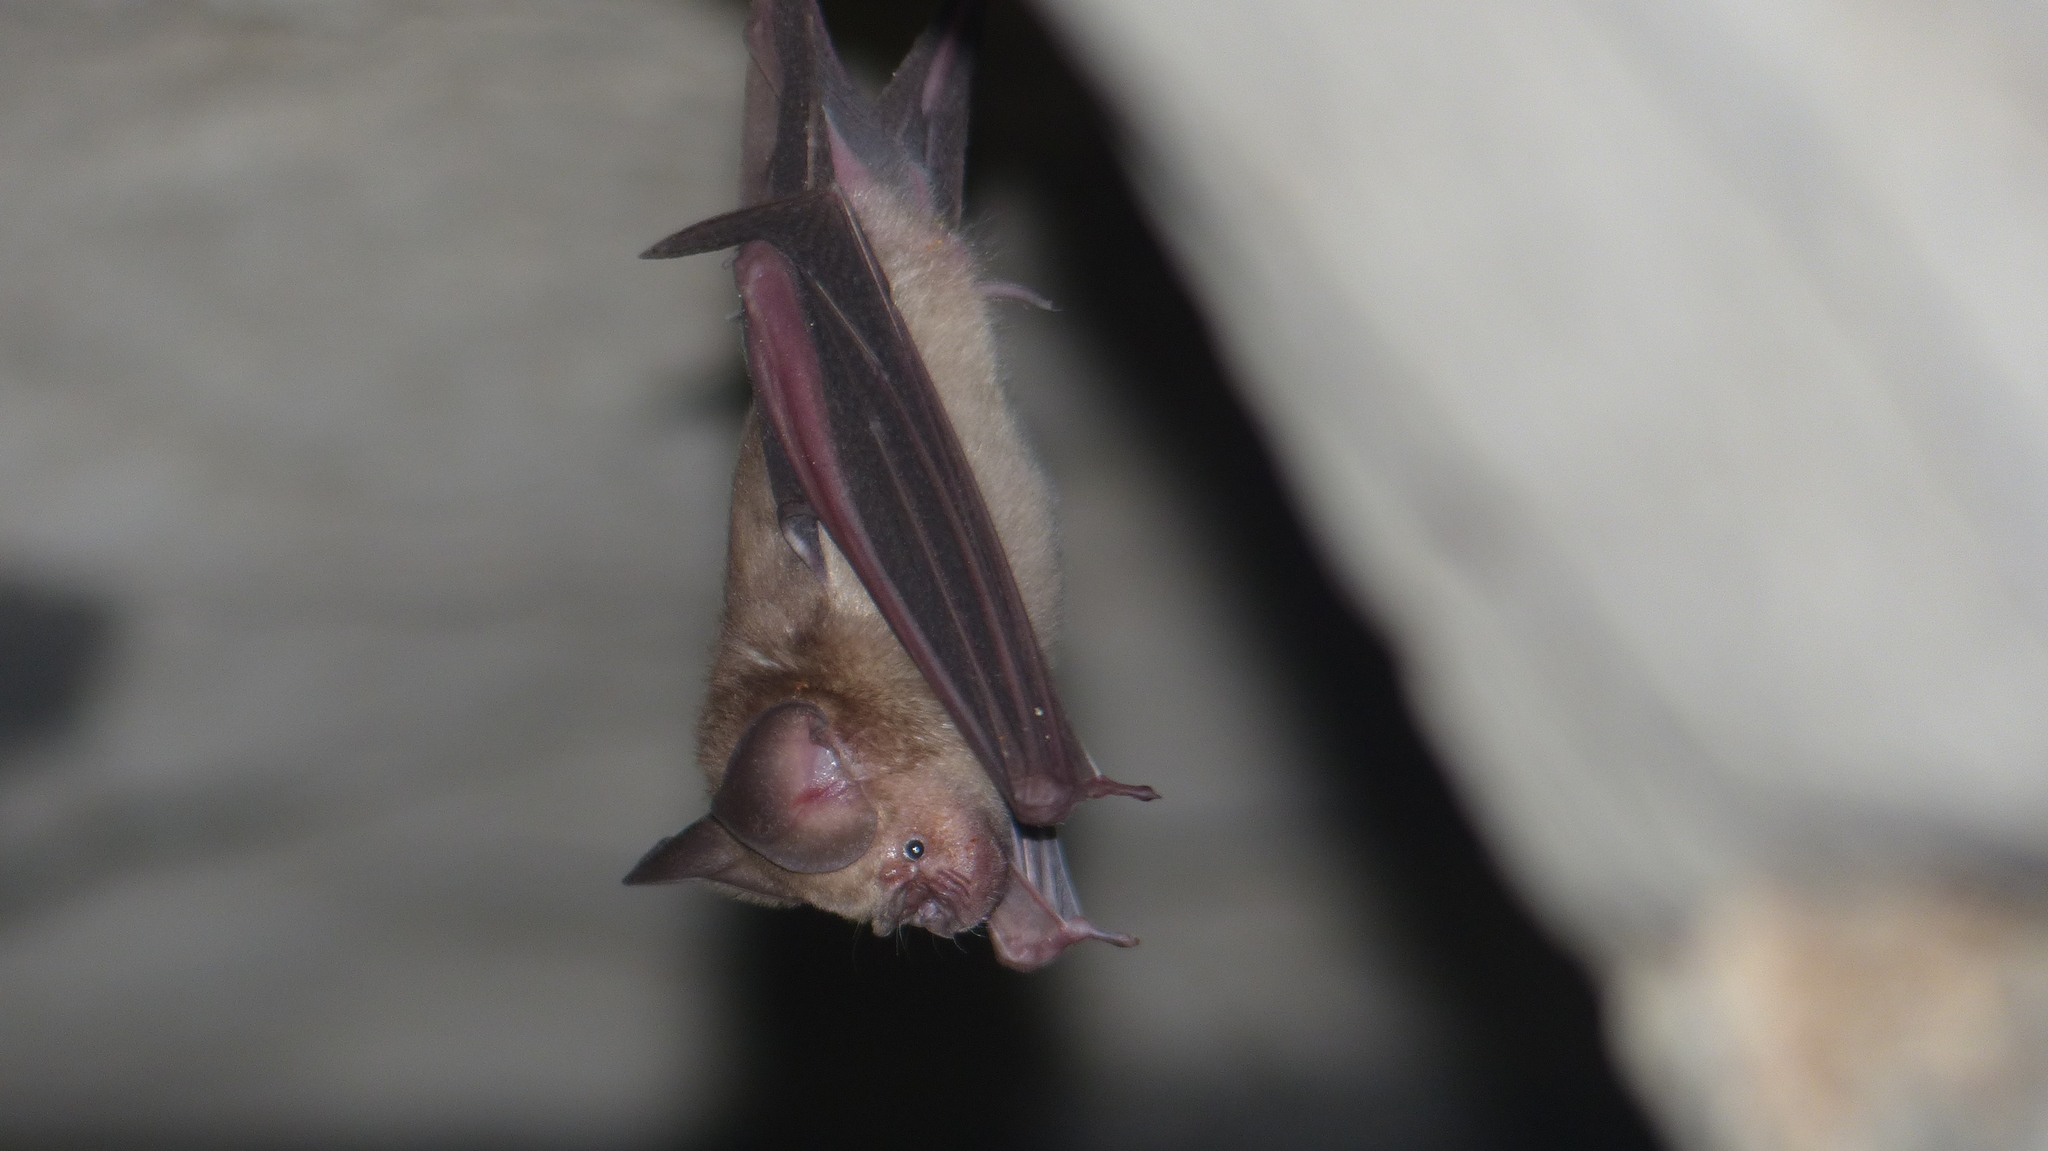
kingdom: Animalia
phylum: Chordata
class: Mammalia
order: Chiroptera
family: Hipposideridae
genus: Hipposideros
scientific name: Hipposideros speoris
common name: Schneider's roundleaf bat
